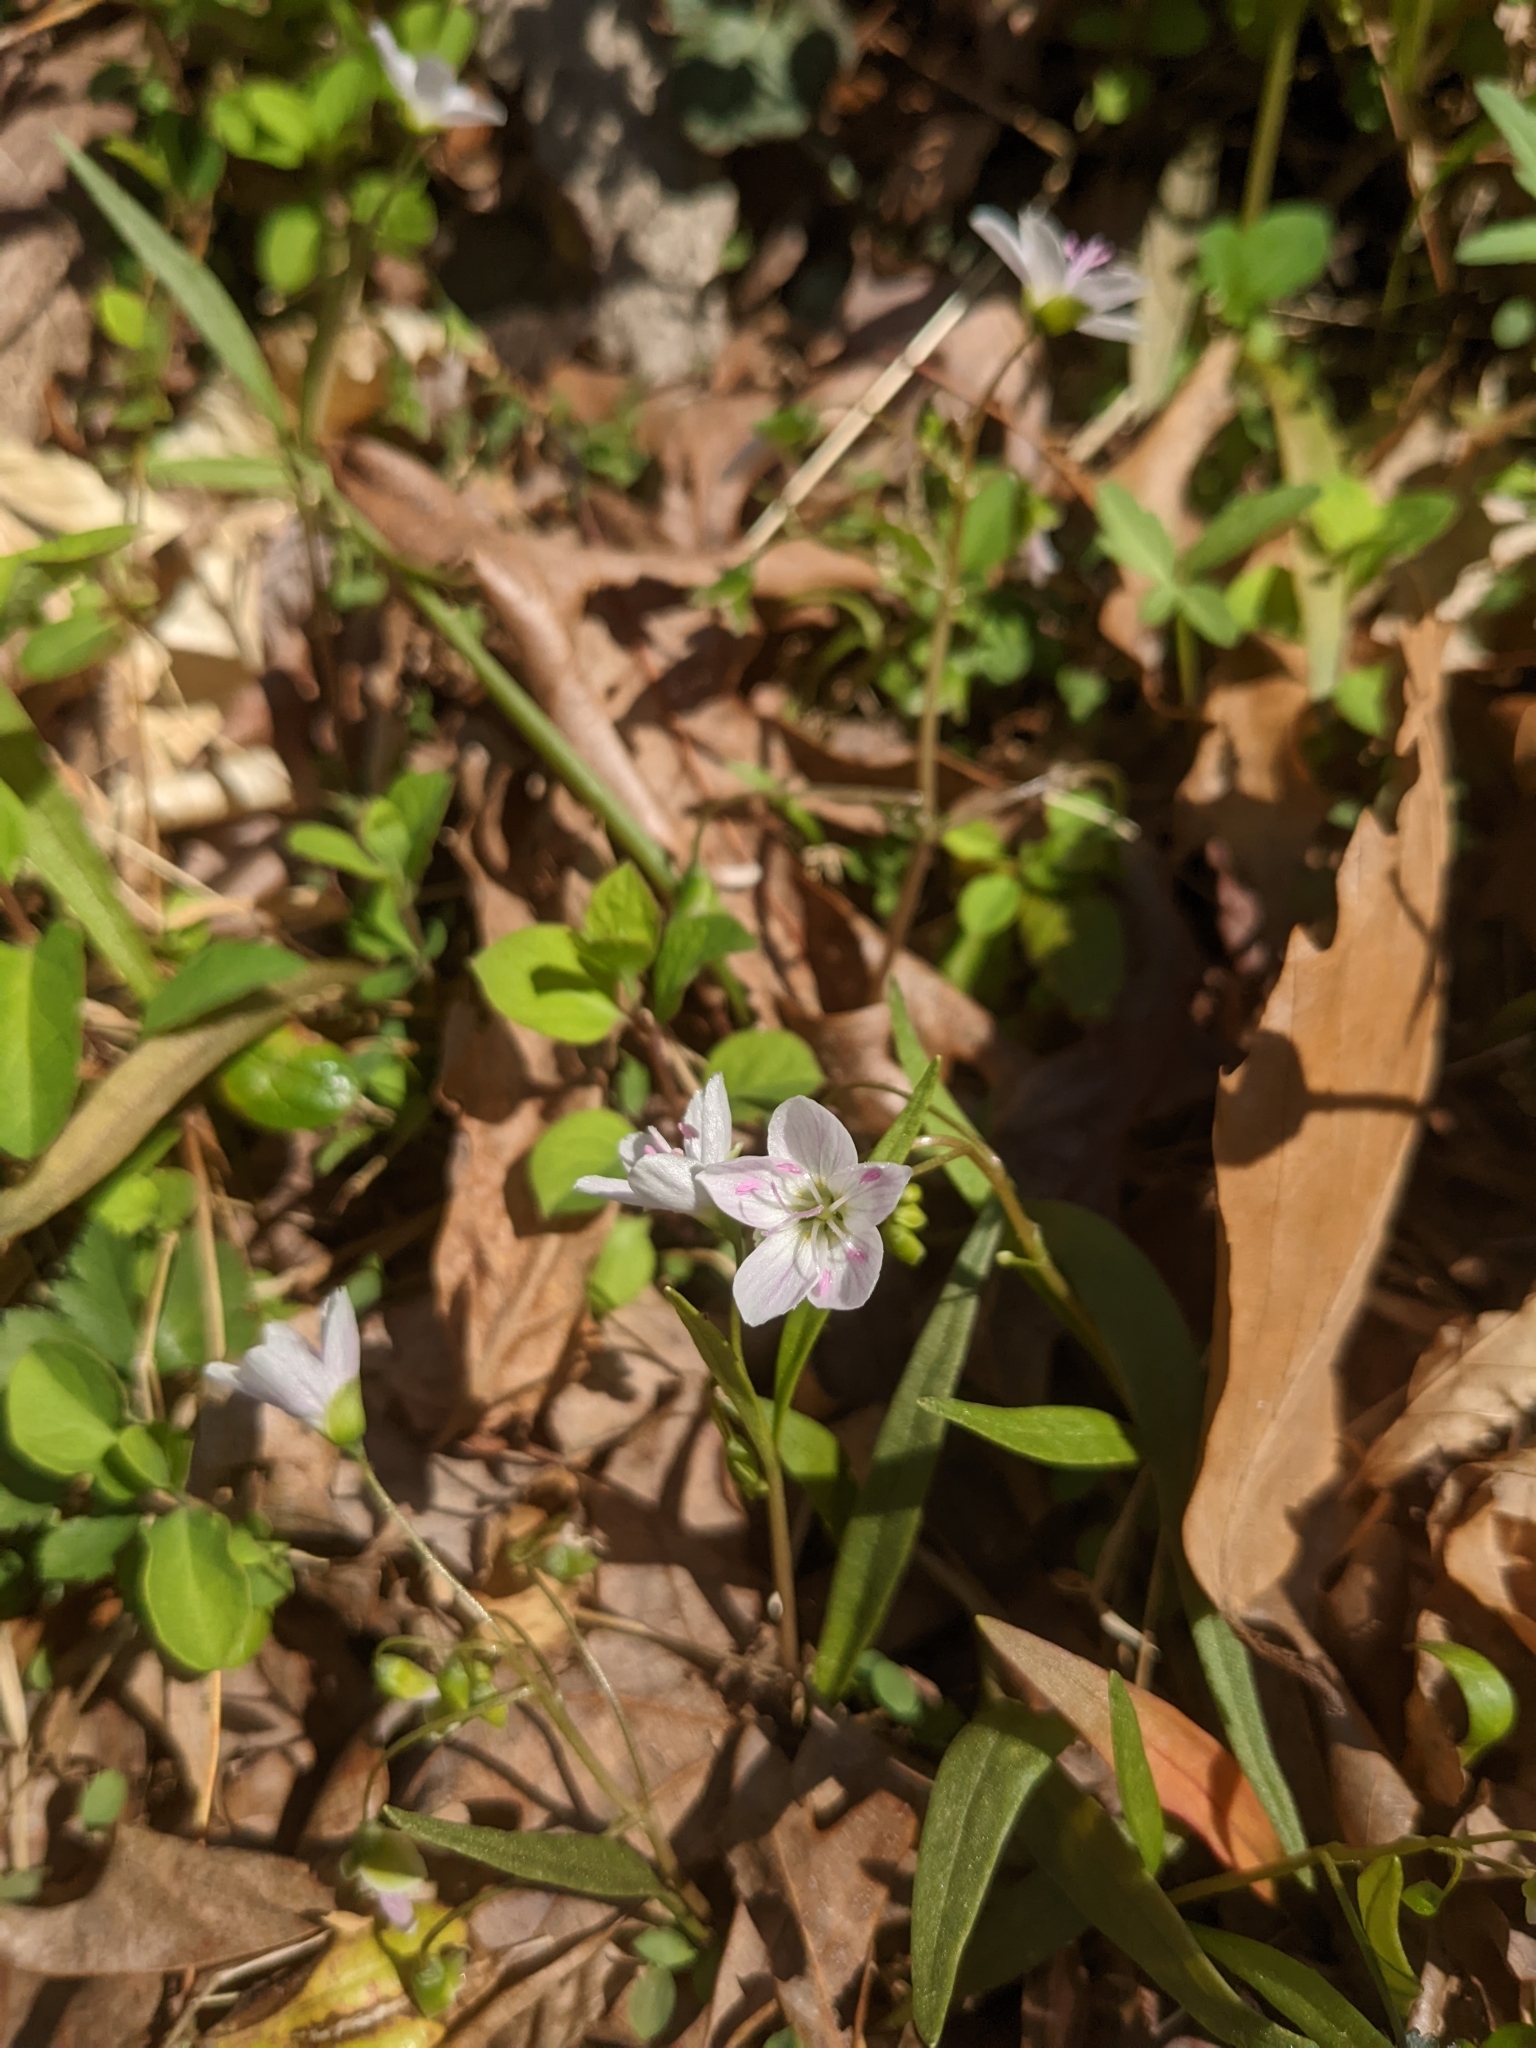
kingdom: Plantae
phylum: Tracheophyta
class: Magnoliopsida
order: Caryophyllales
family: Montiaceae
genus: Claytonia
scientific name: Claytonia virginica
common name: Virginia springbeauty
